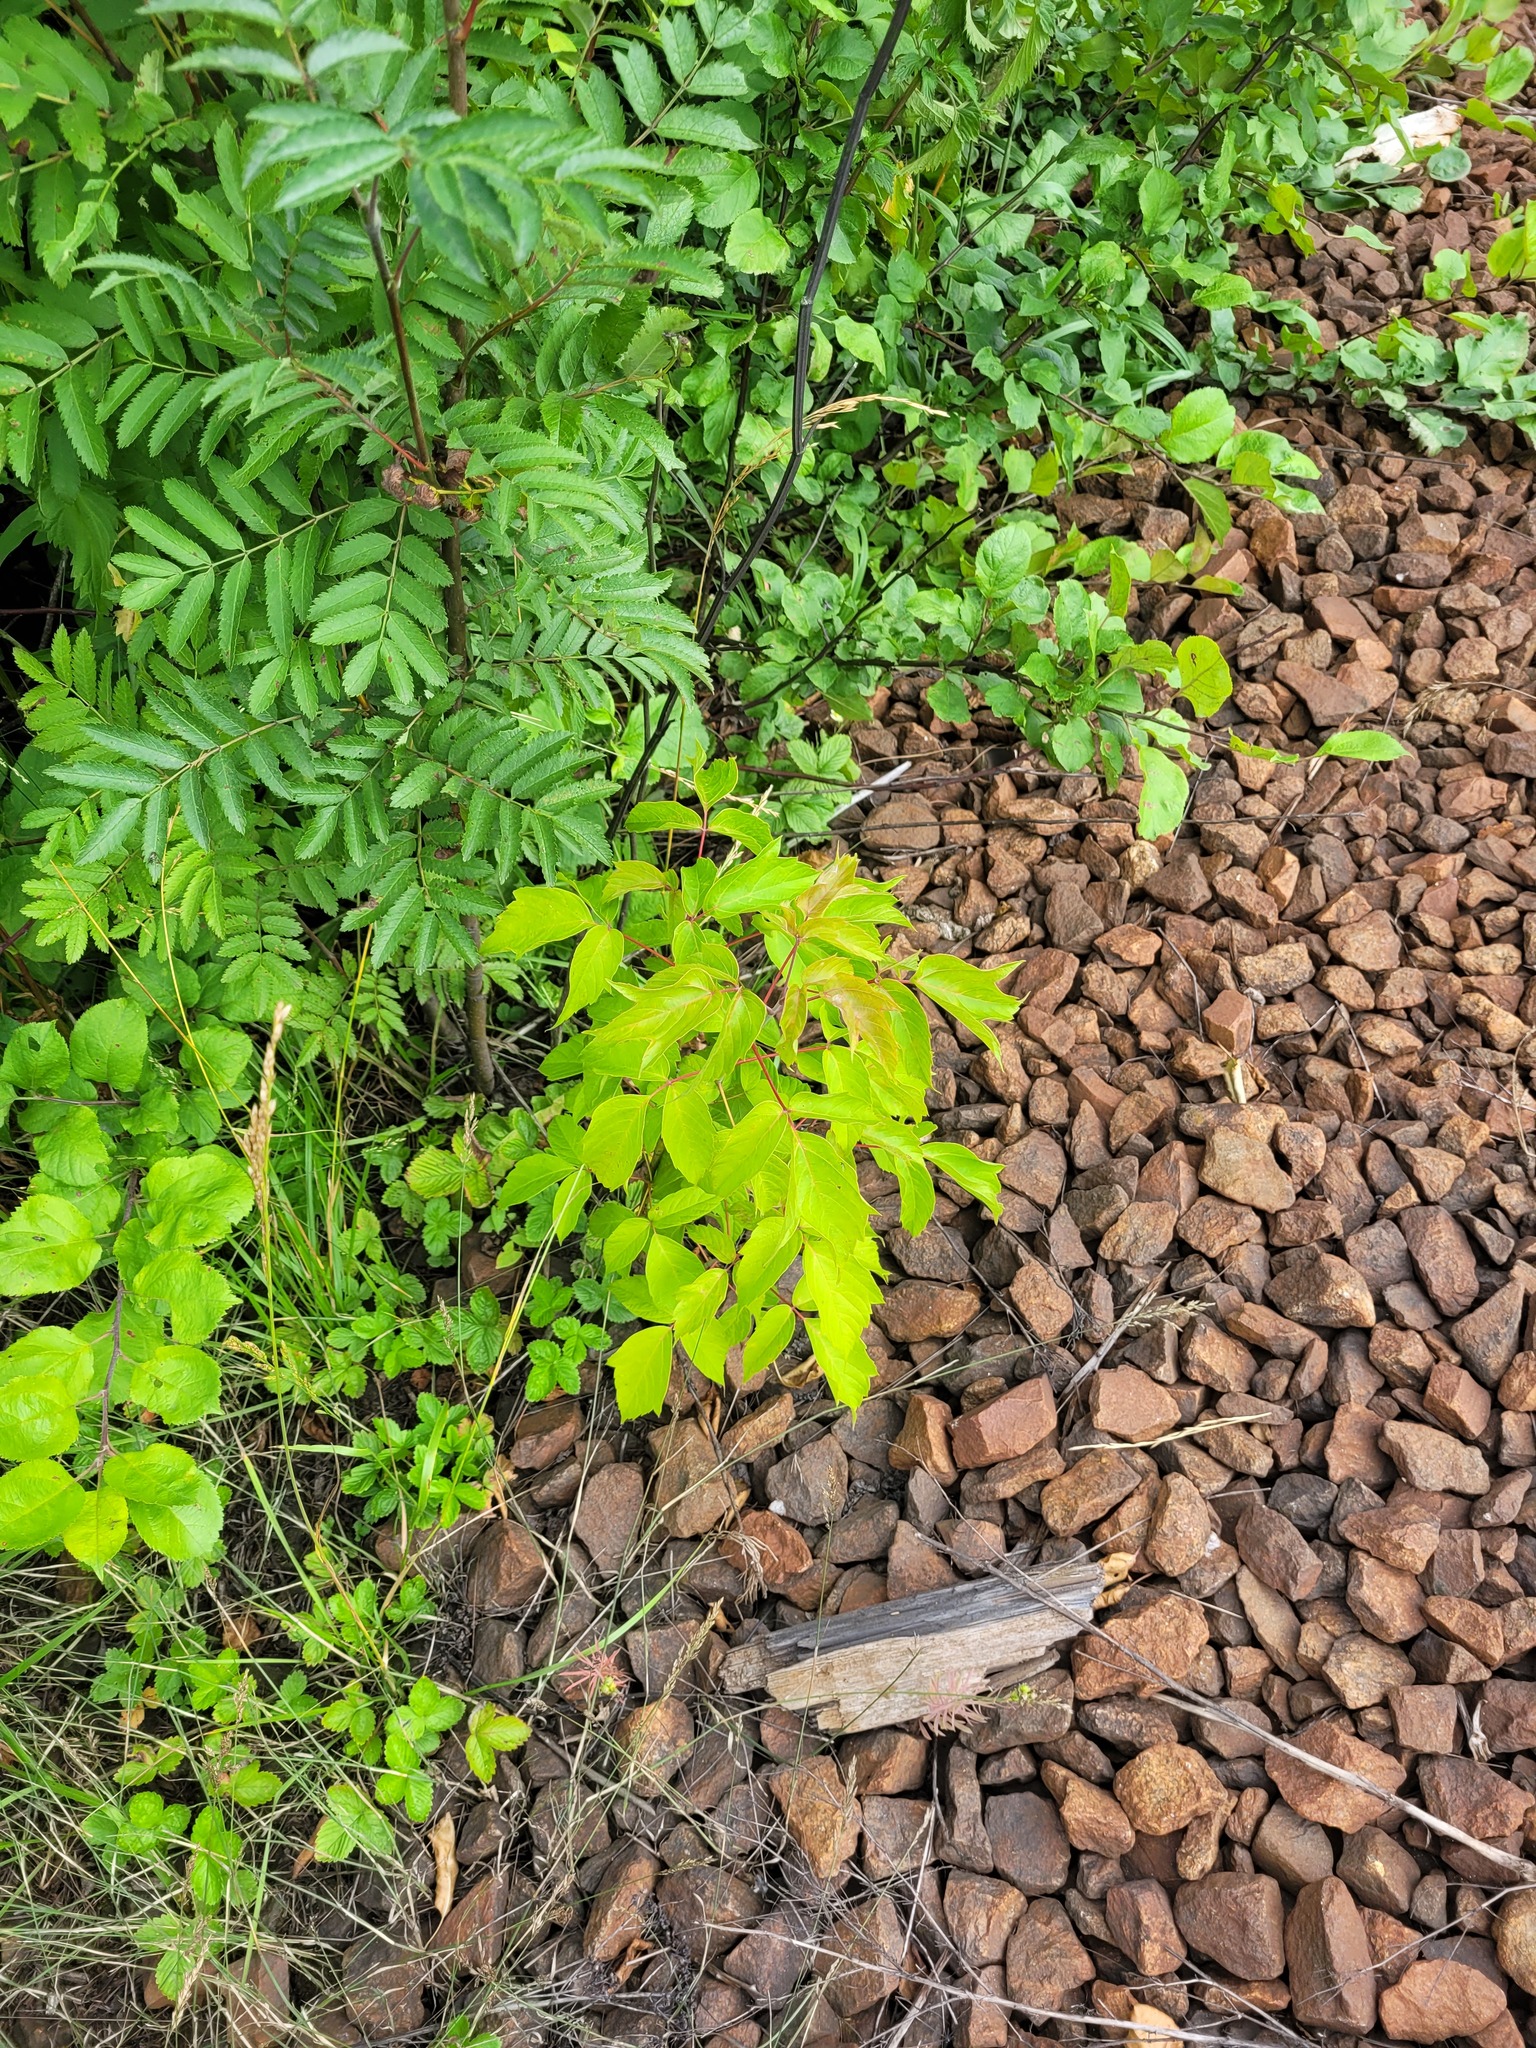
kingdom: Plantae
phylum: Tracheophyta
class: Magnoliopsida
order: Sapindales
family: Sapindaceae
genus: Acer
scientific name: Acer negundo
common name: Ashleaf maple
